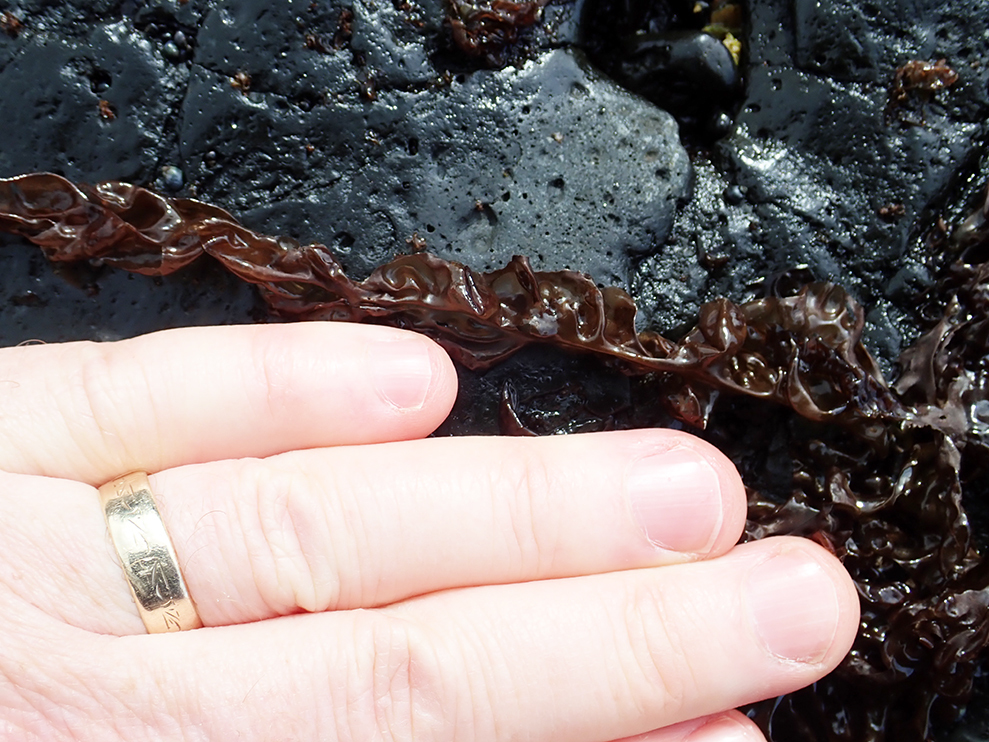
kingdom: Plantae
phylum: Rhodophyta
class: Bangiophyceae
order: Bangiales
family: Bangiaceae
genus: Pyropia
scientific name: Pyropia virididentata
